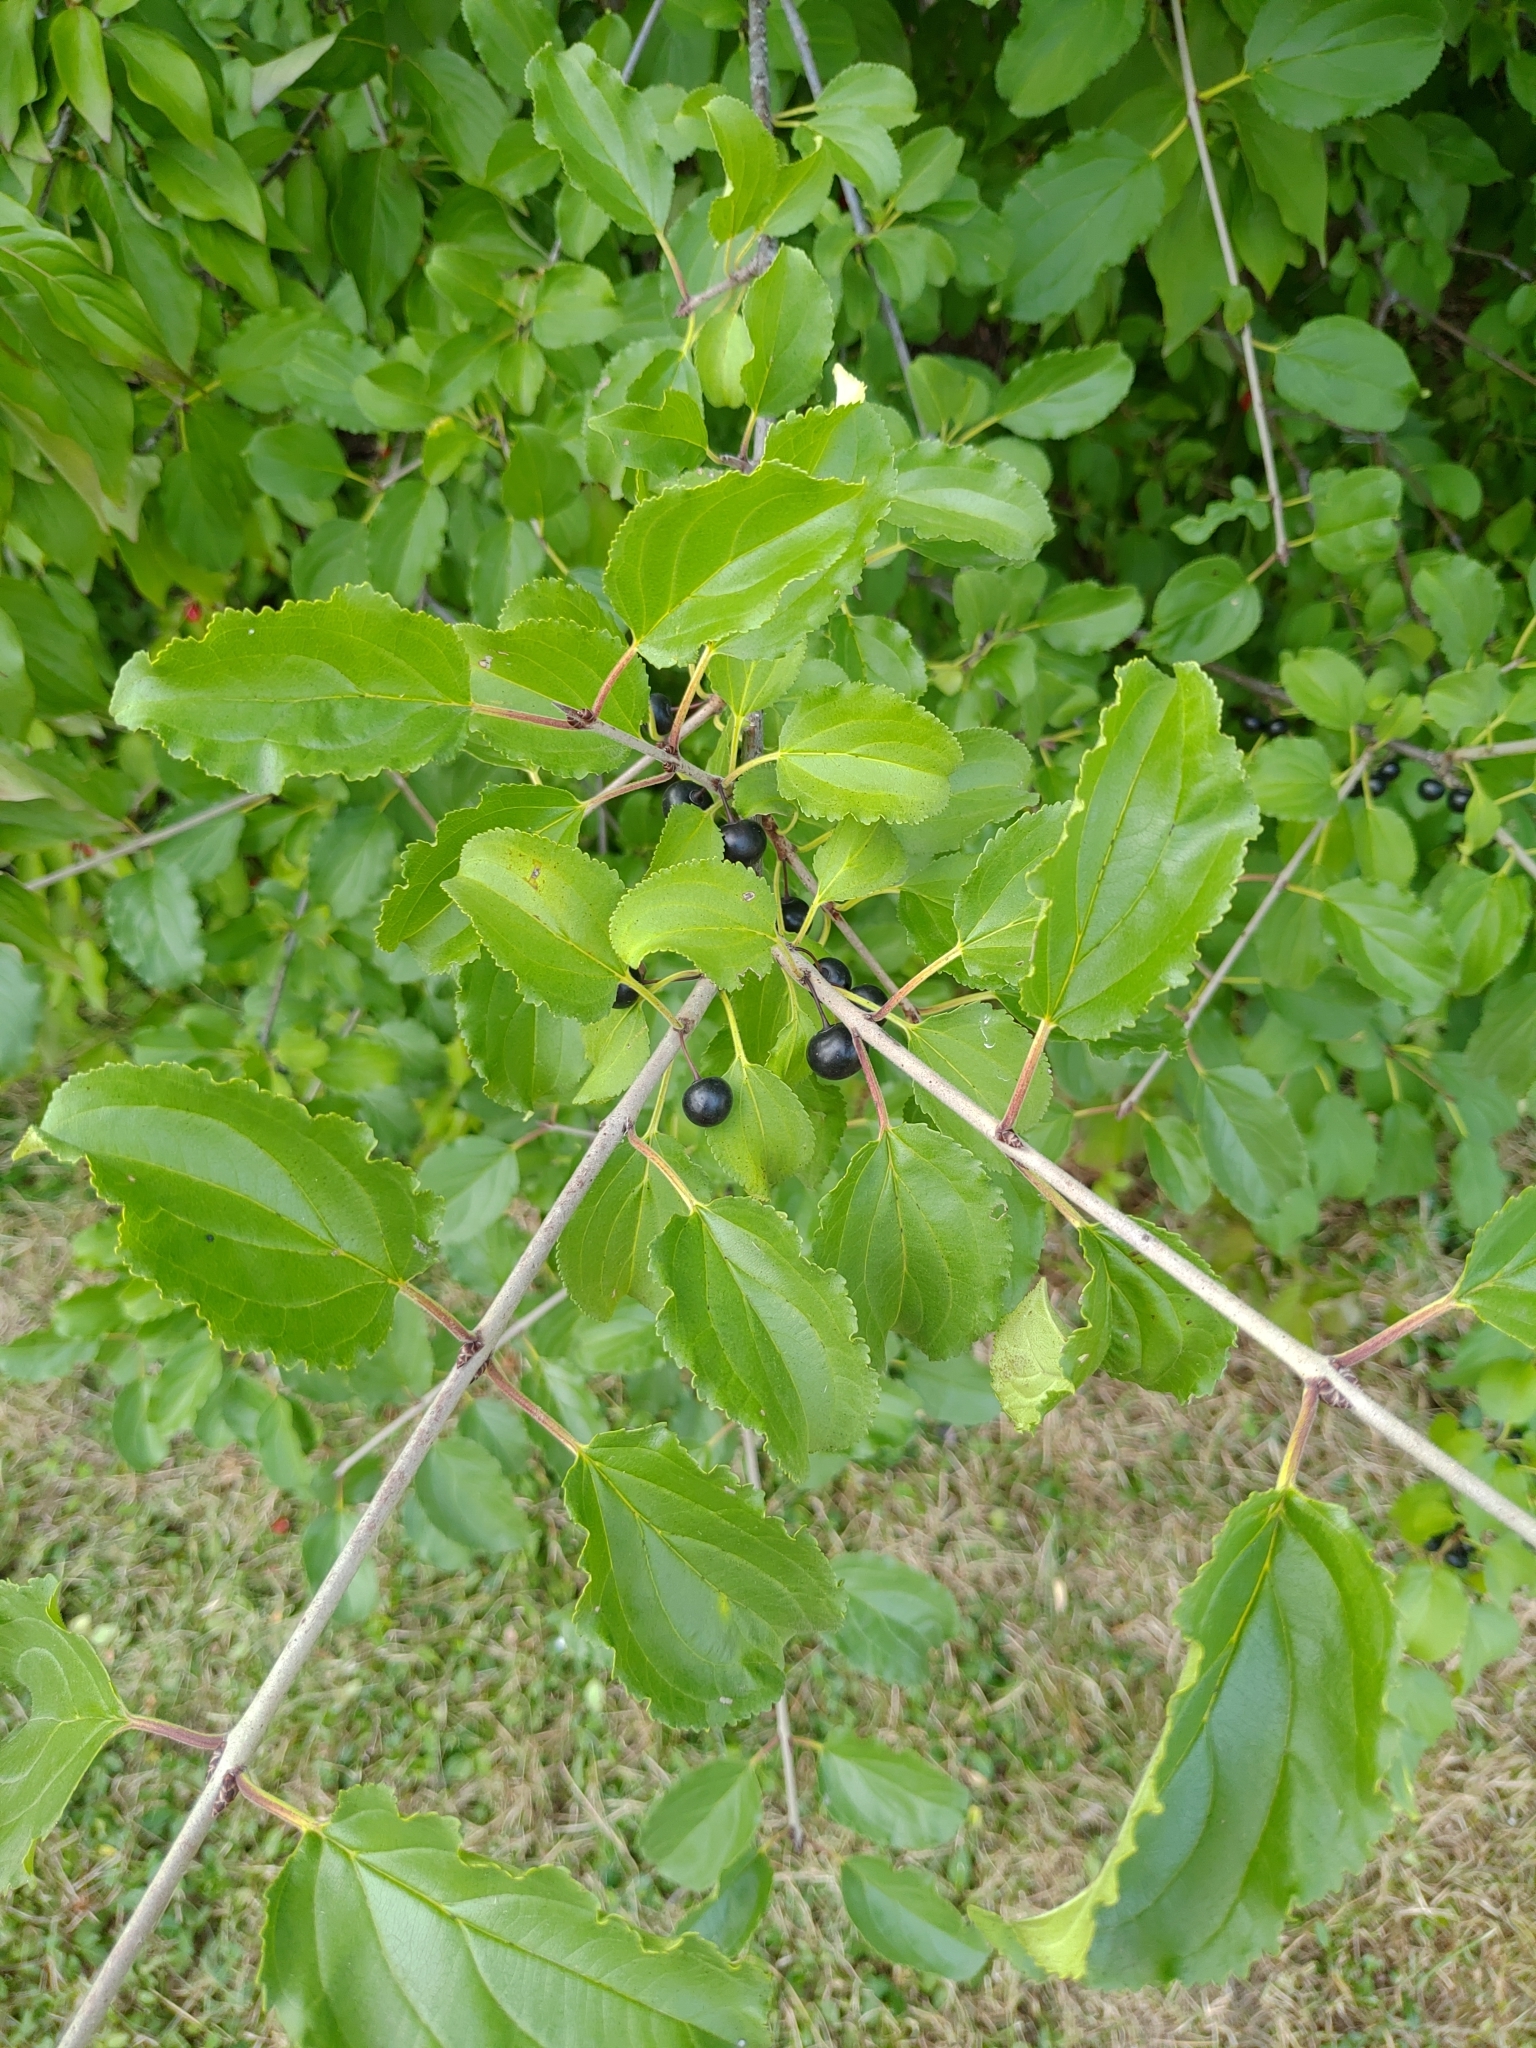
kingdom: Plantae
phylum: Tracheophyta
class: Magnoliopsida
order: Rosales
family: Rhamnaceae
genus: Rhamnus
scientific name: Rhamnus cathartica
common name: Common buckthorn
